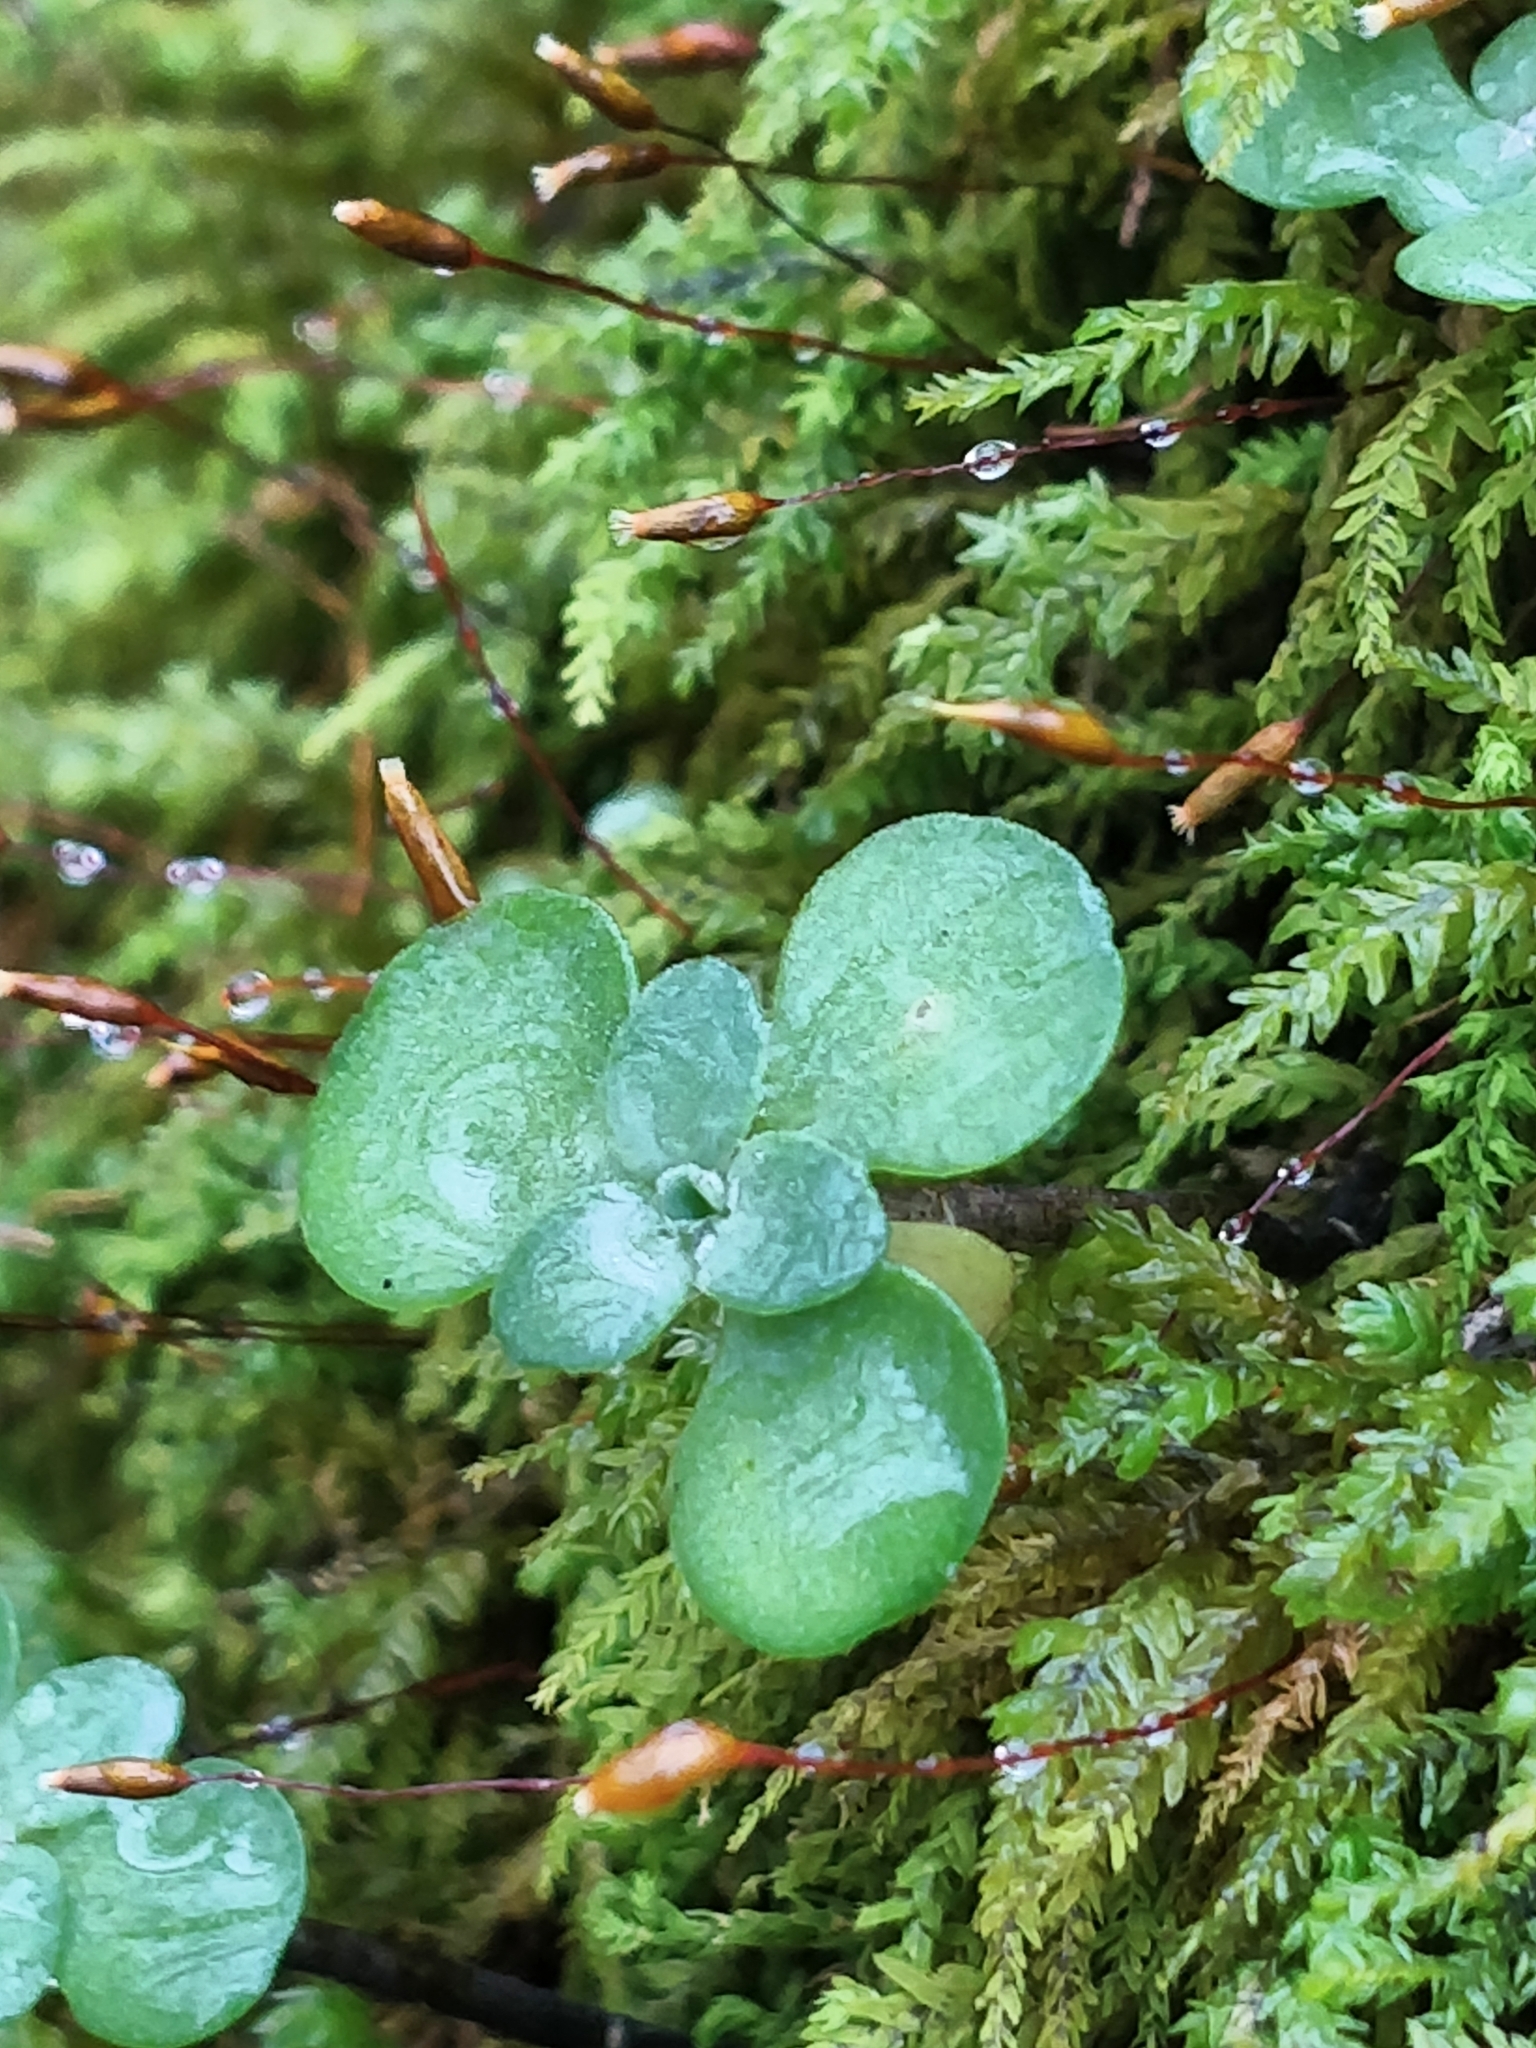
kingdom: Plantae
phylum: Tracheophyta
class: Magnoliopsida
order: Saxifragales
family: Crassulaceae
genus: Sedum
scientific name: Sedum ternatum
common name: Wild stonecrop
